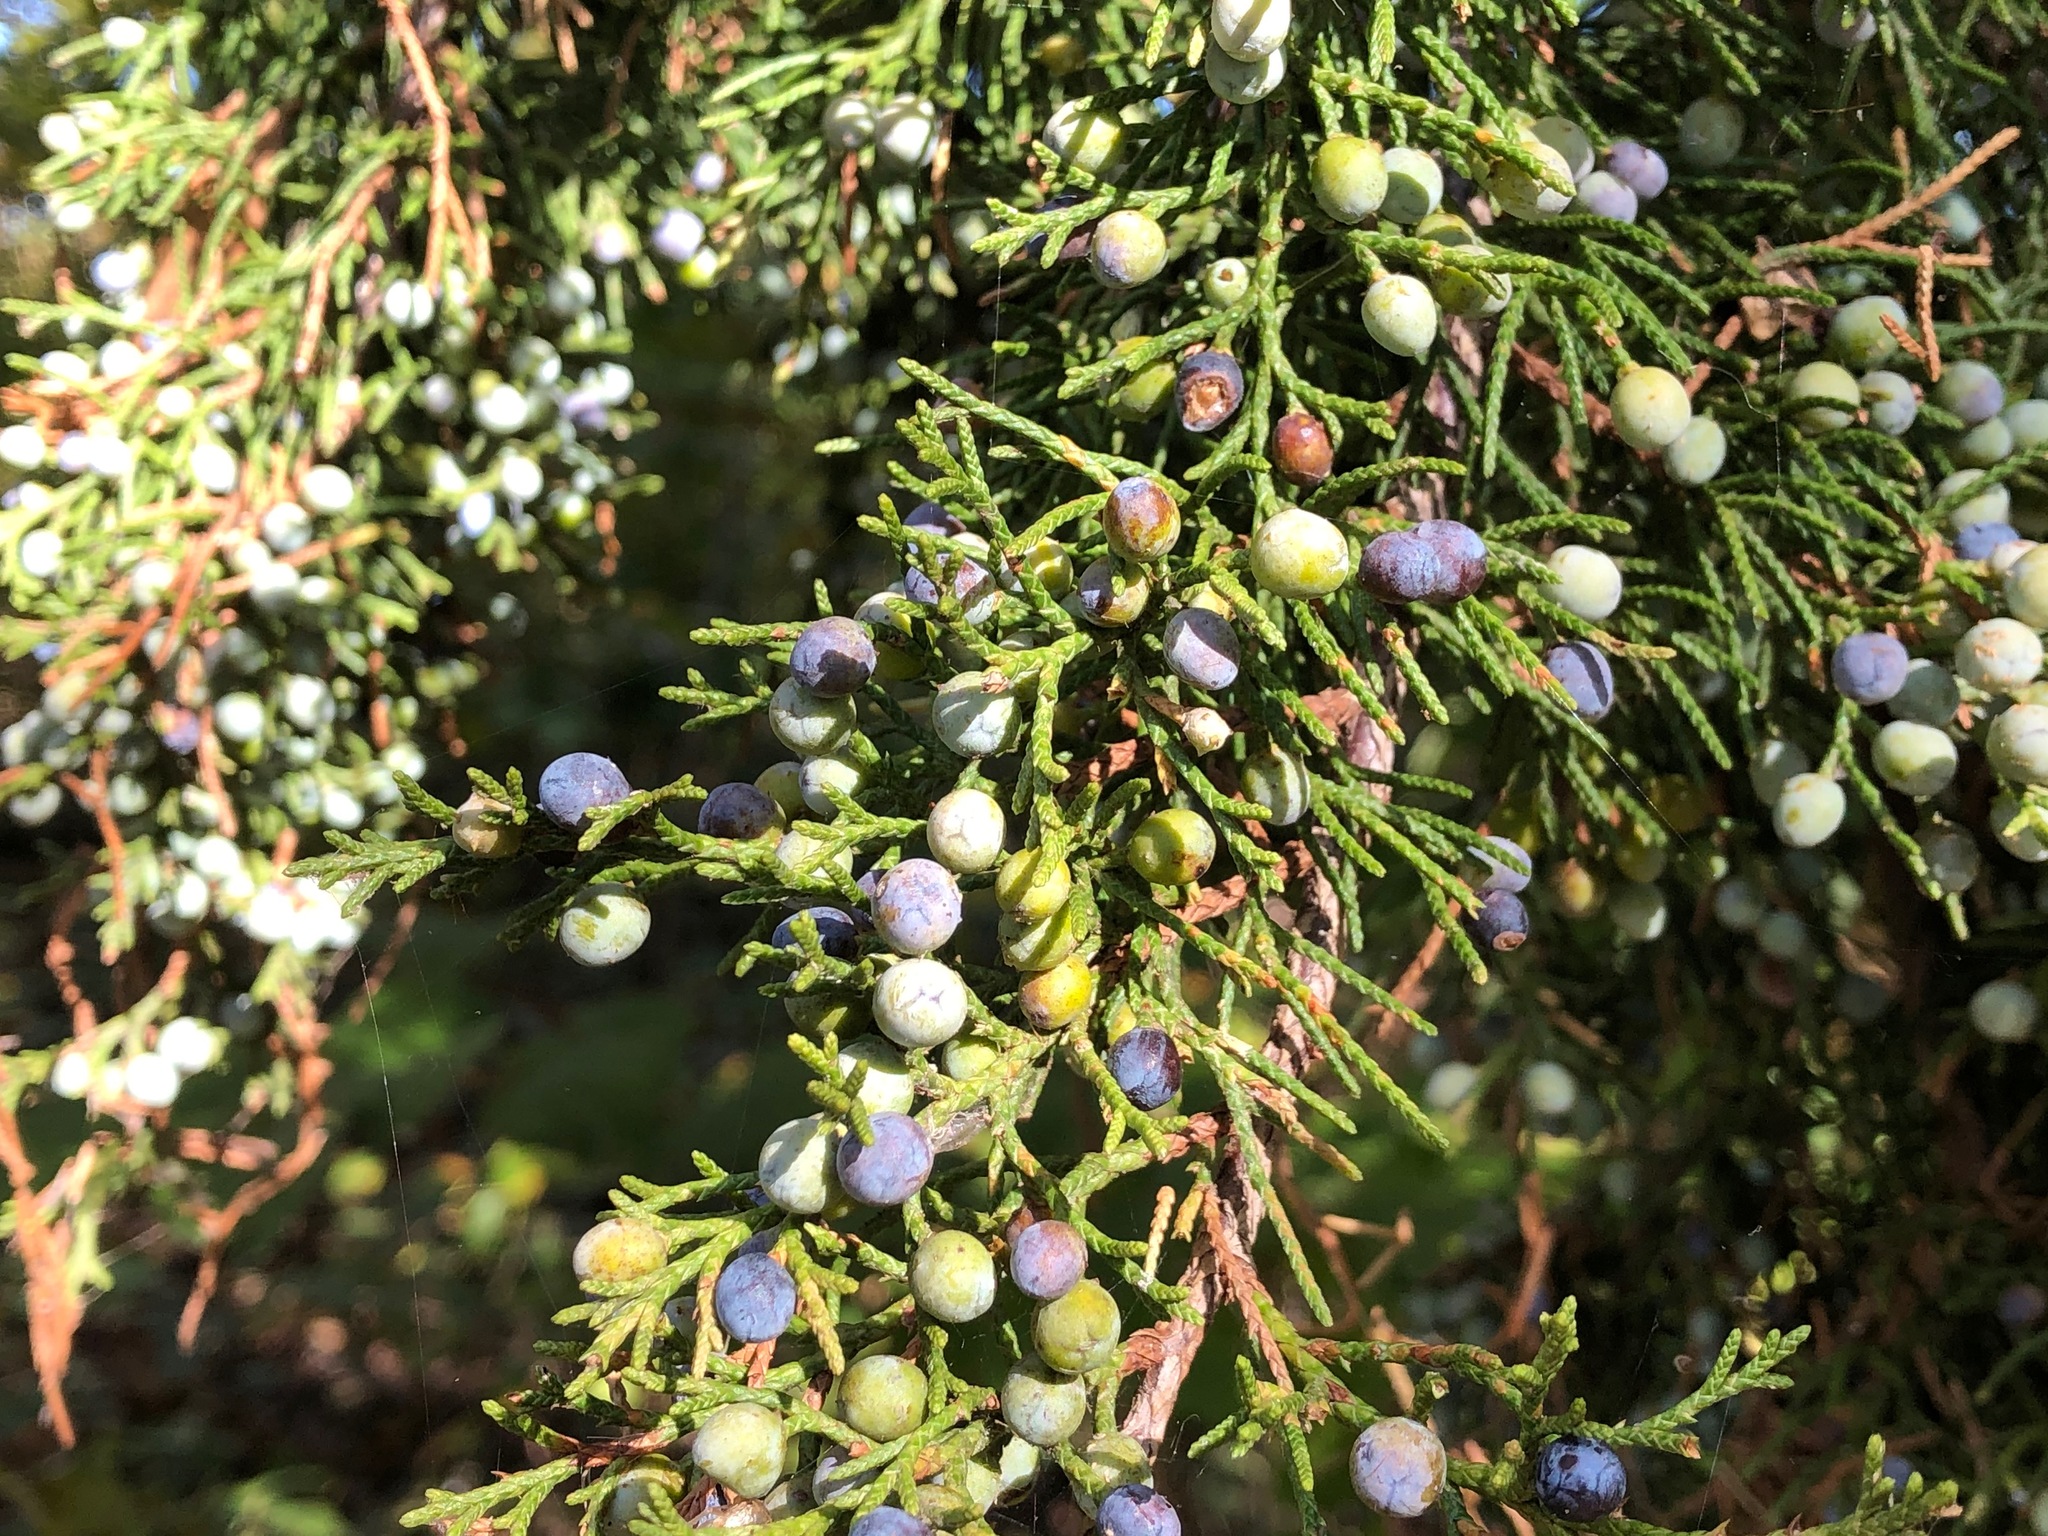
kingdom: Plantae
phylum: Tracheophyta
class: Pinopsida
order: Pinales
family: Cupressaceae
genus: Juniperus
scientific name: Juniperus virginiana
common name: Red juniper
